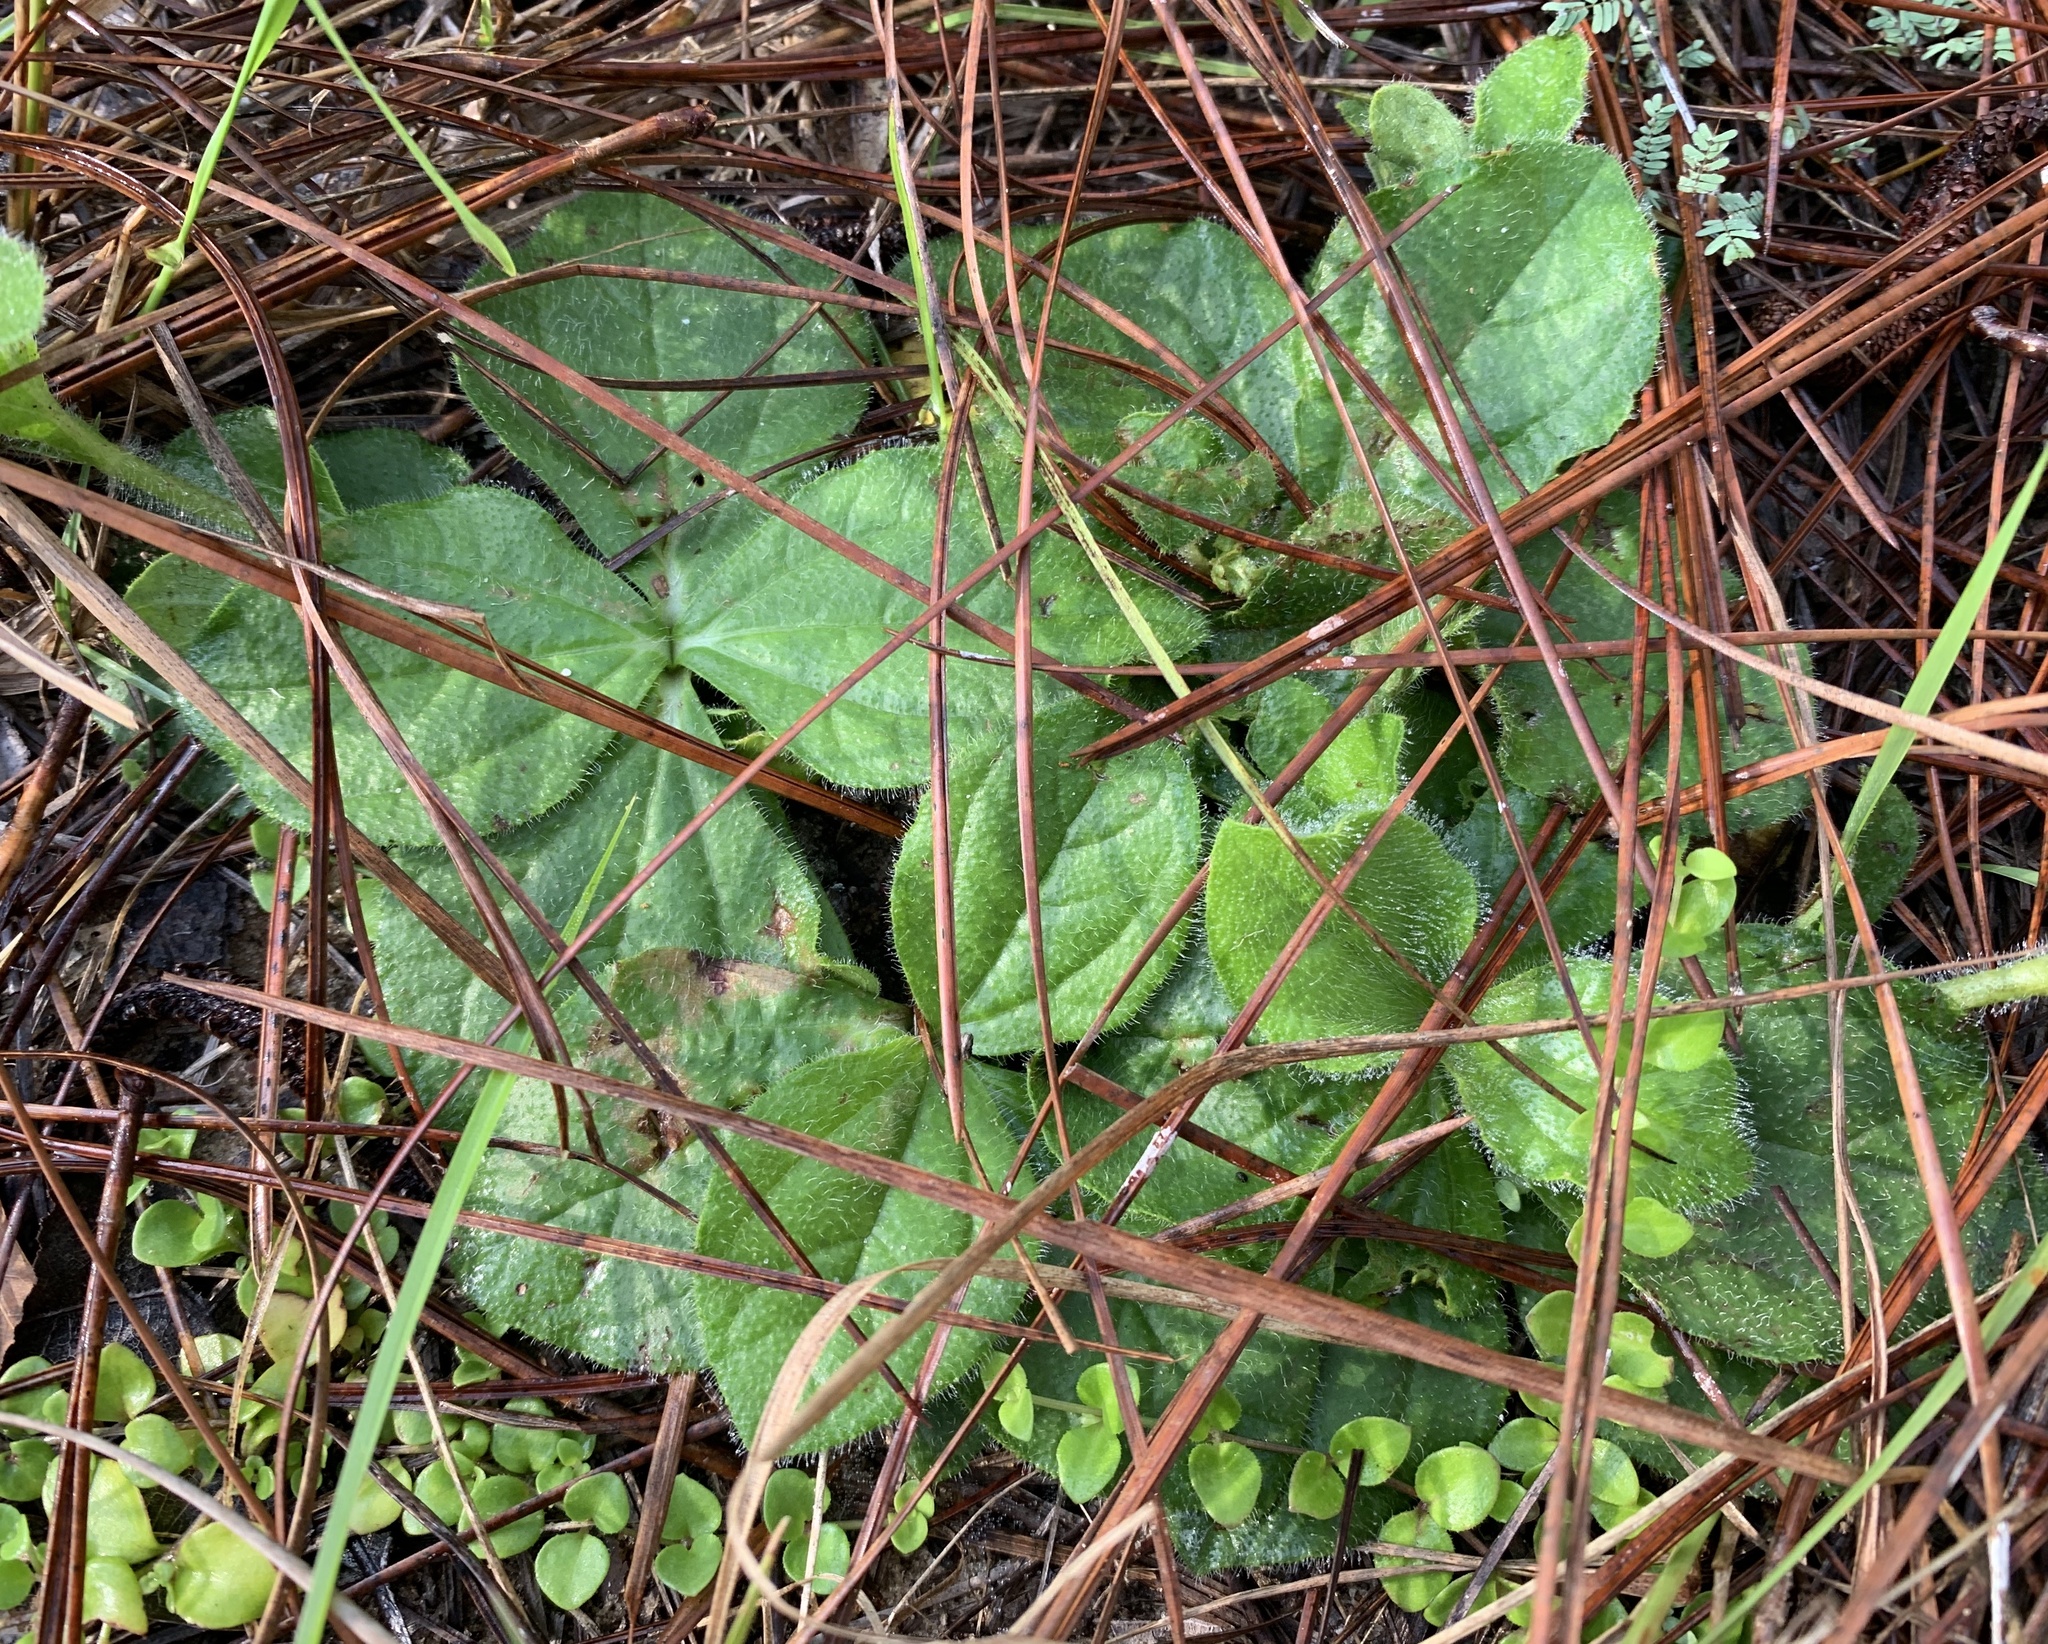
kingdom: Plantae
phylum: Tracheophyta
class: Magnoliopsida
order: Asterales
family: Asteraceae
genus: Helianthus
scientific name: Helianthus radula
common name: Pineland sunflower
